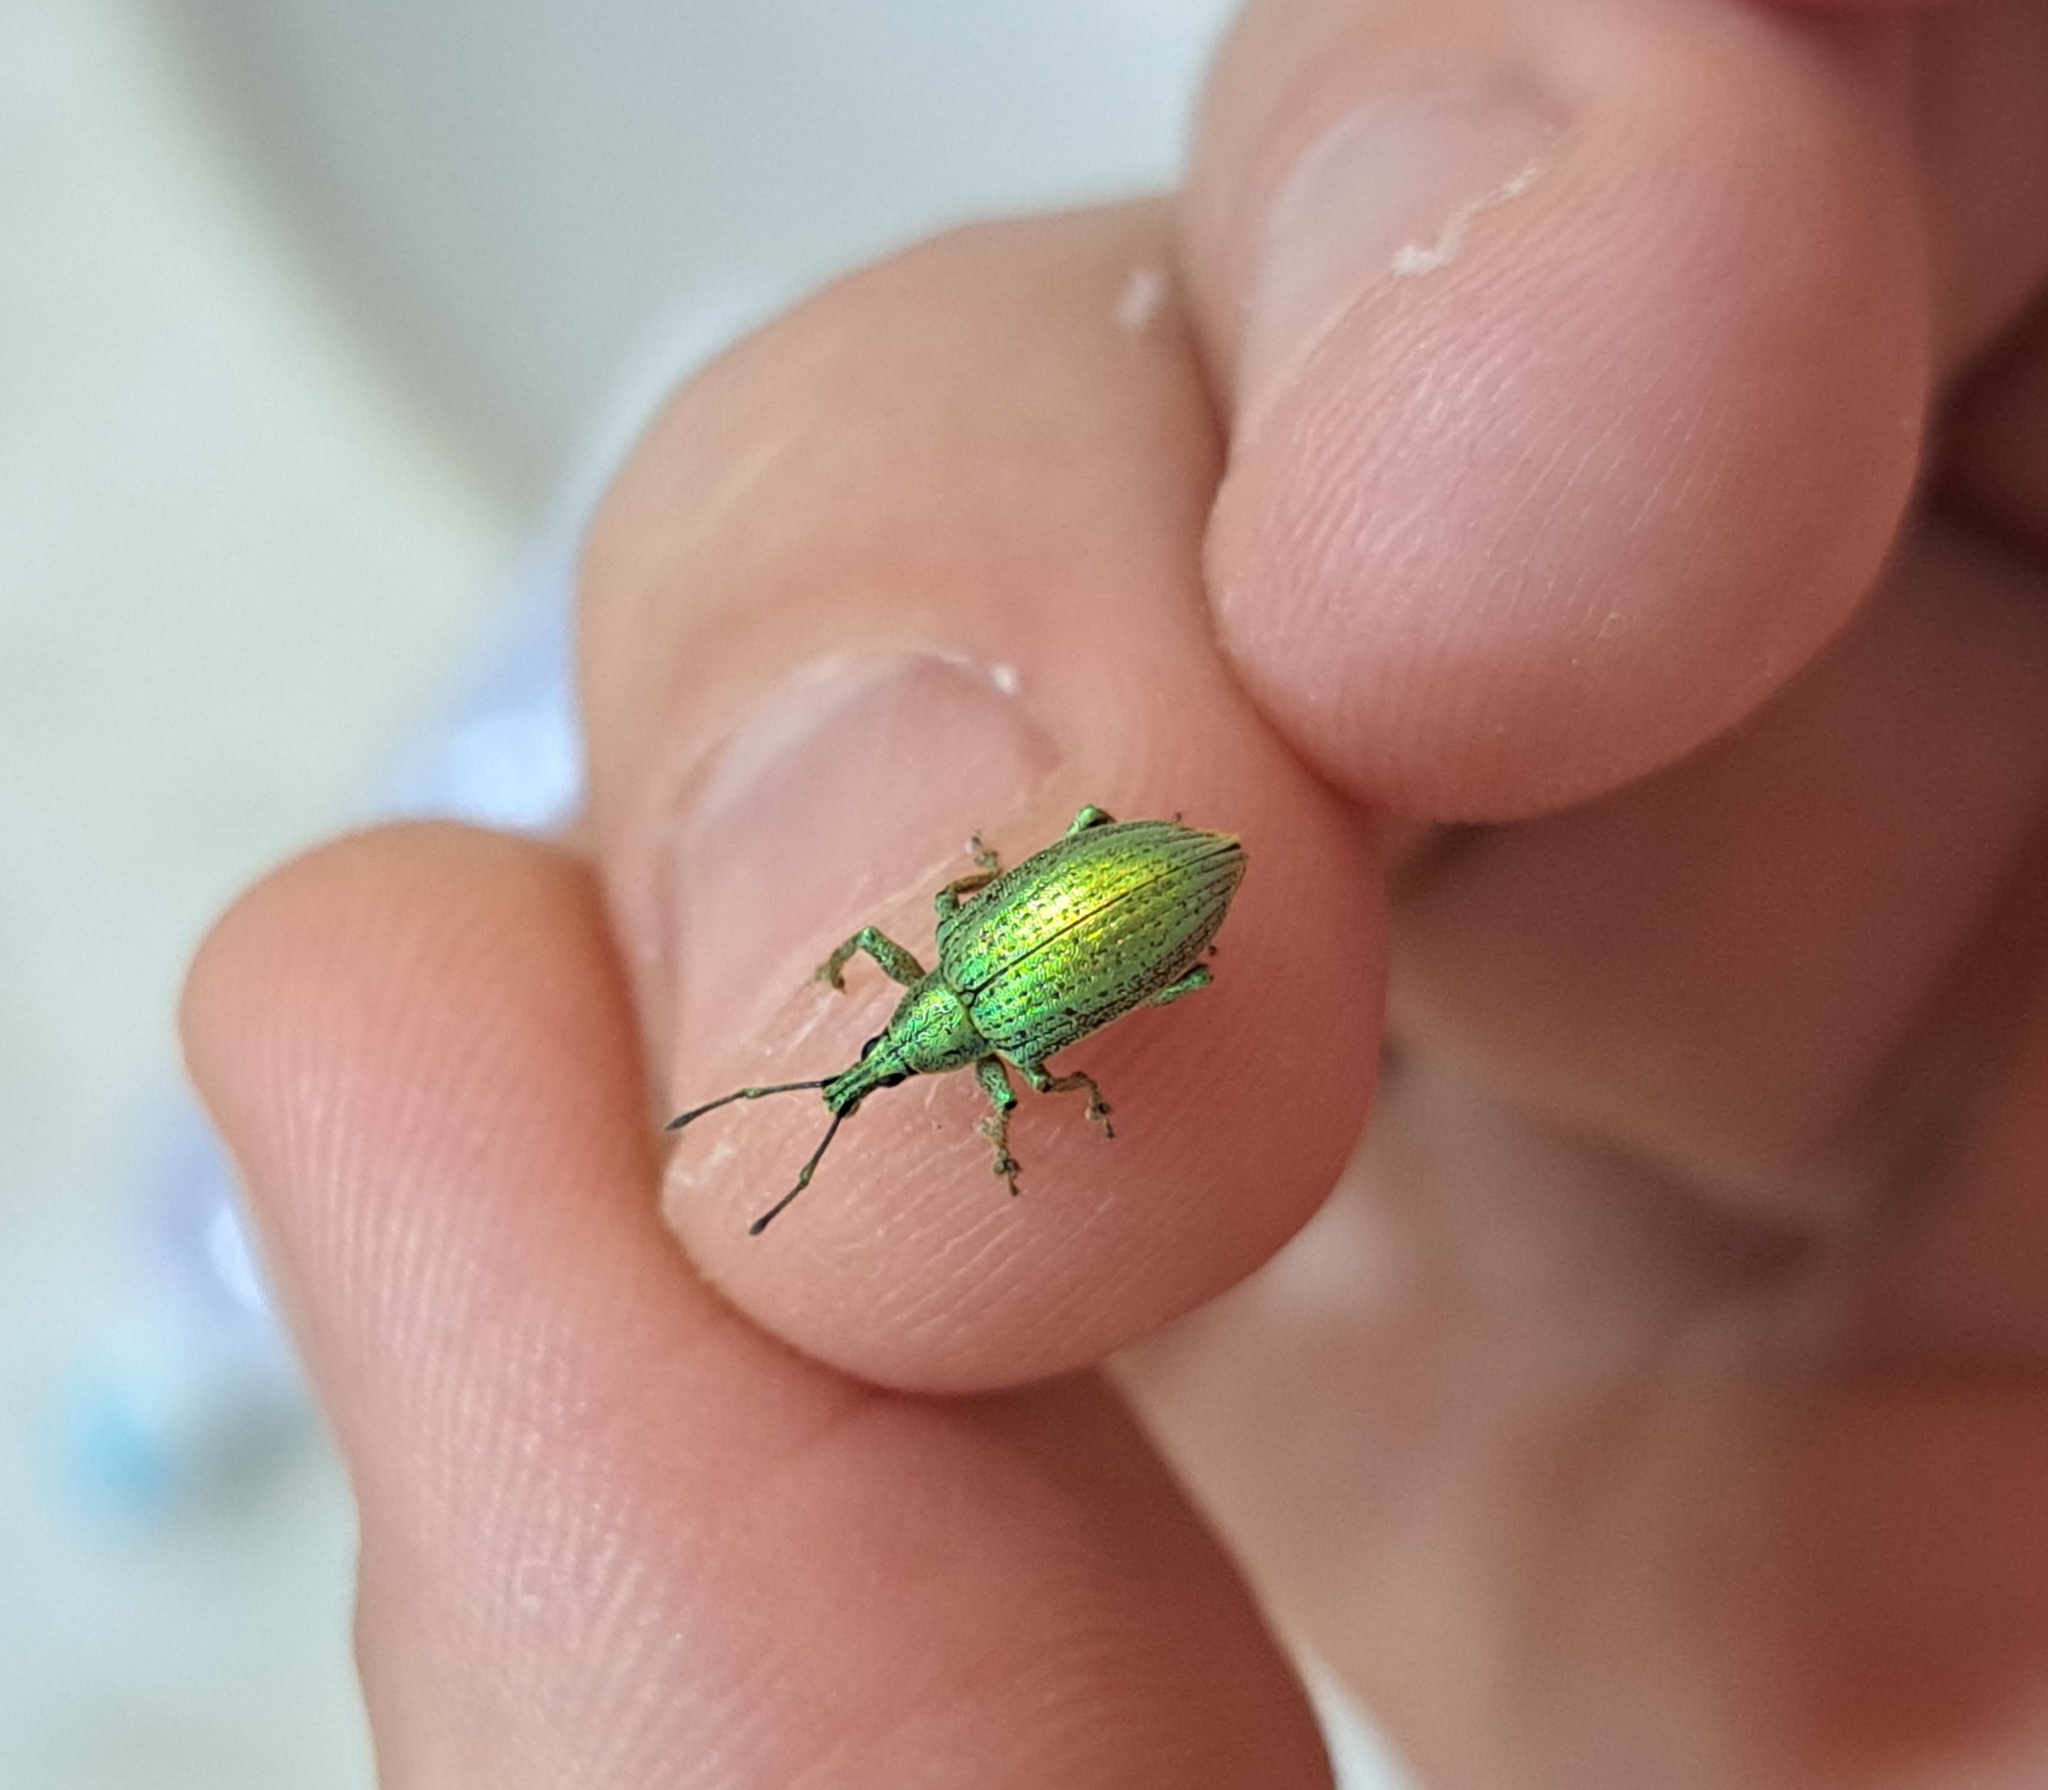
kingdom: Animalia
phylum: Arthropoda
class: Insecta
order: Coleoptera
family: Curculionidae
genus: Anidius
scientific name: Anidius nitidulus
